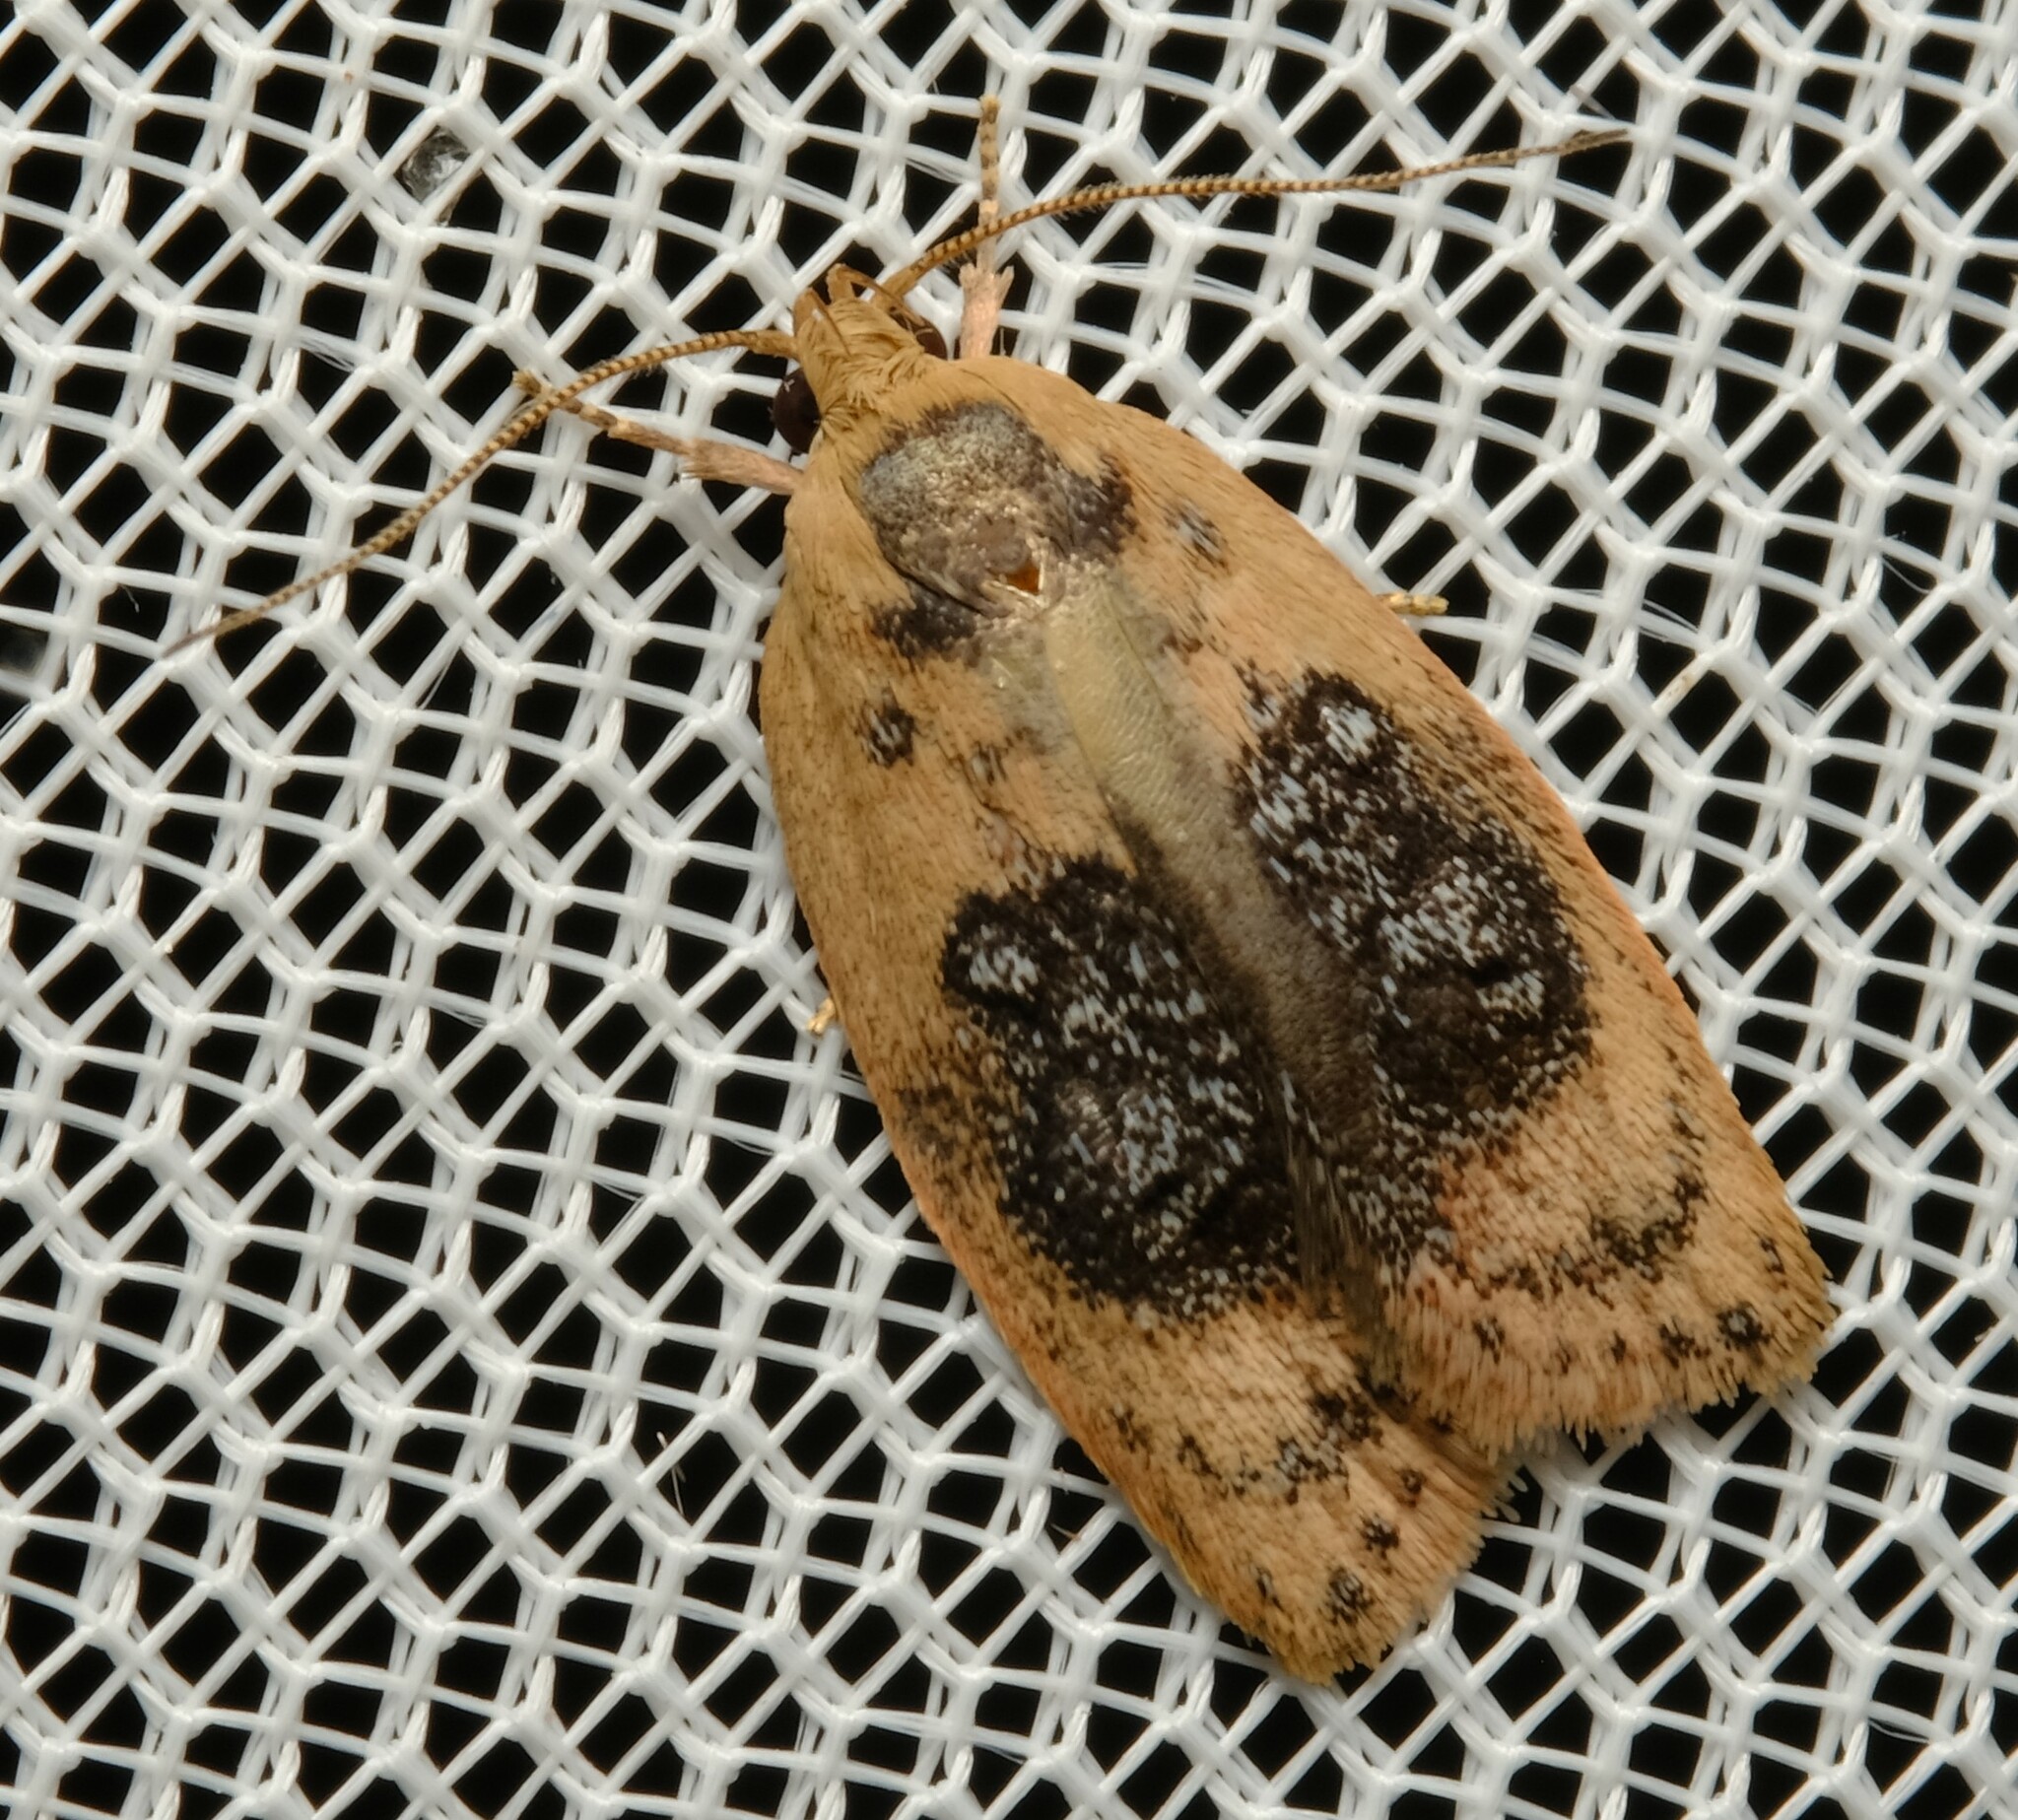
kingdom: Animalia
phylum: Arthropoda
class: Insecta
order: Lepidoptera
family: Oecophoridae
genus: Garrha
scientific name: Garrha ocellifera
